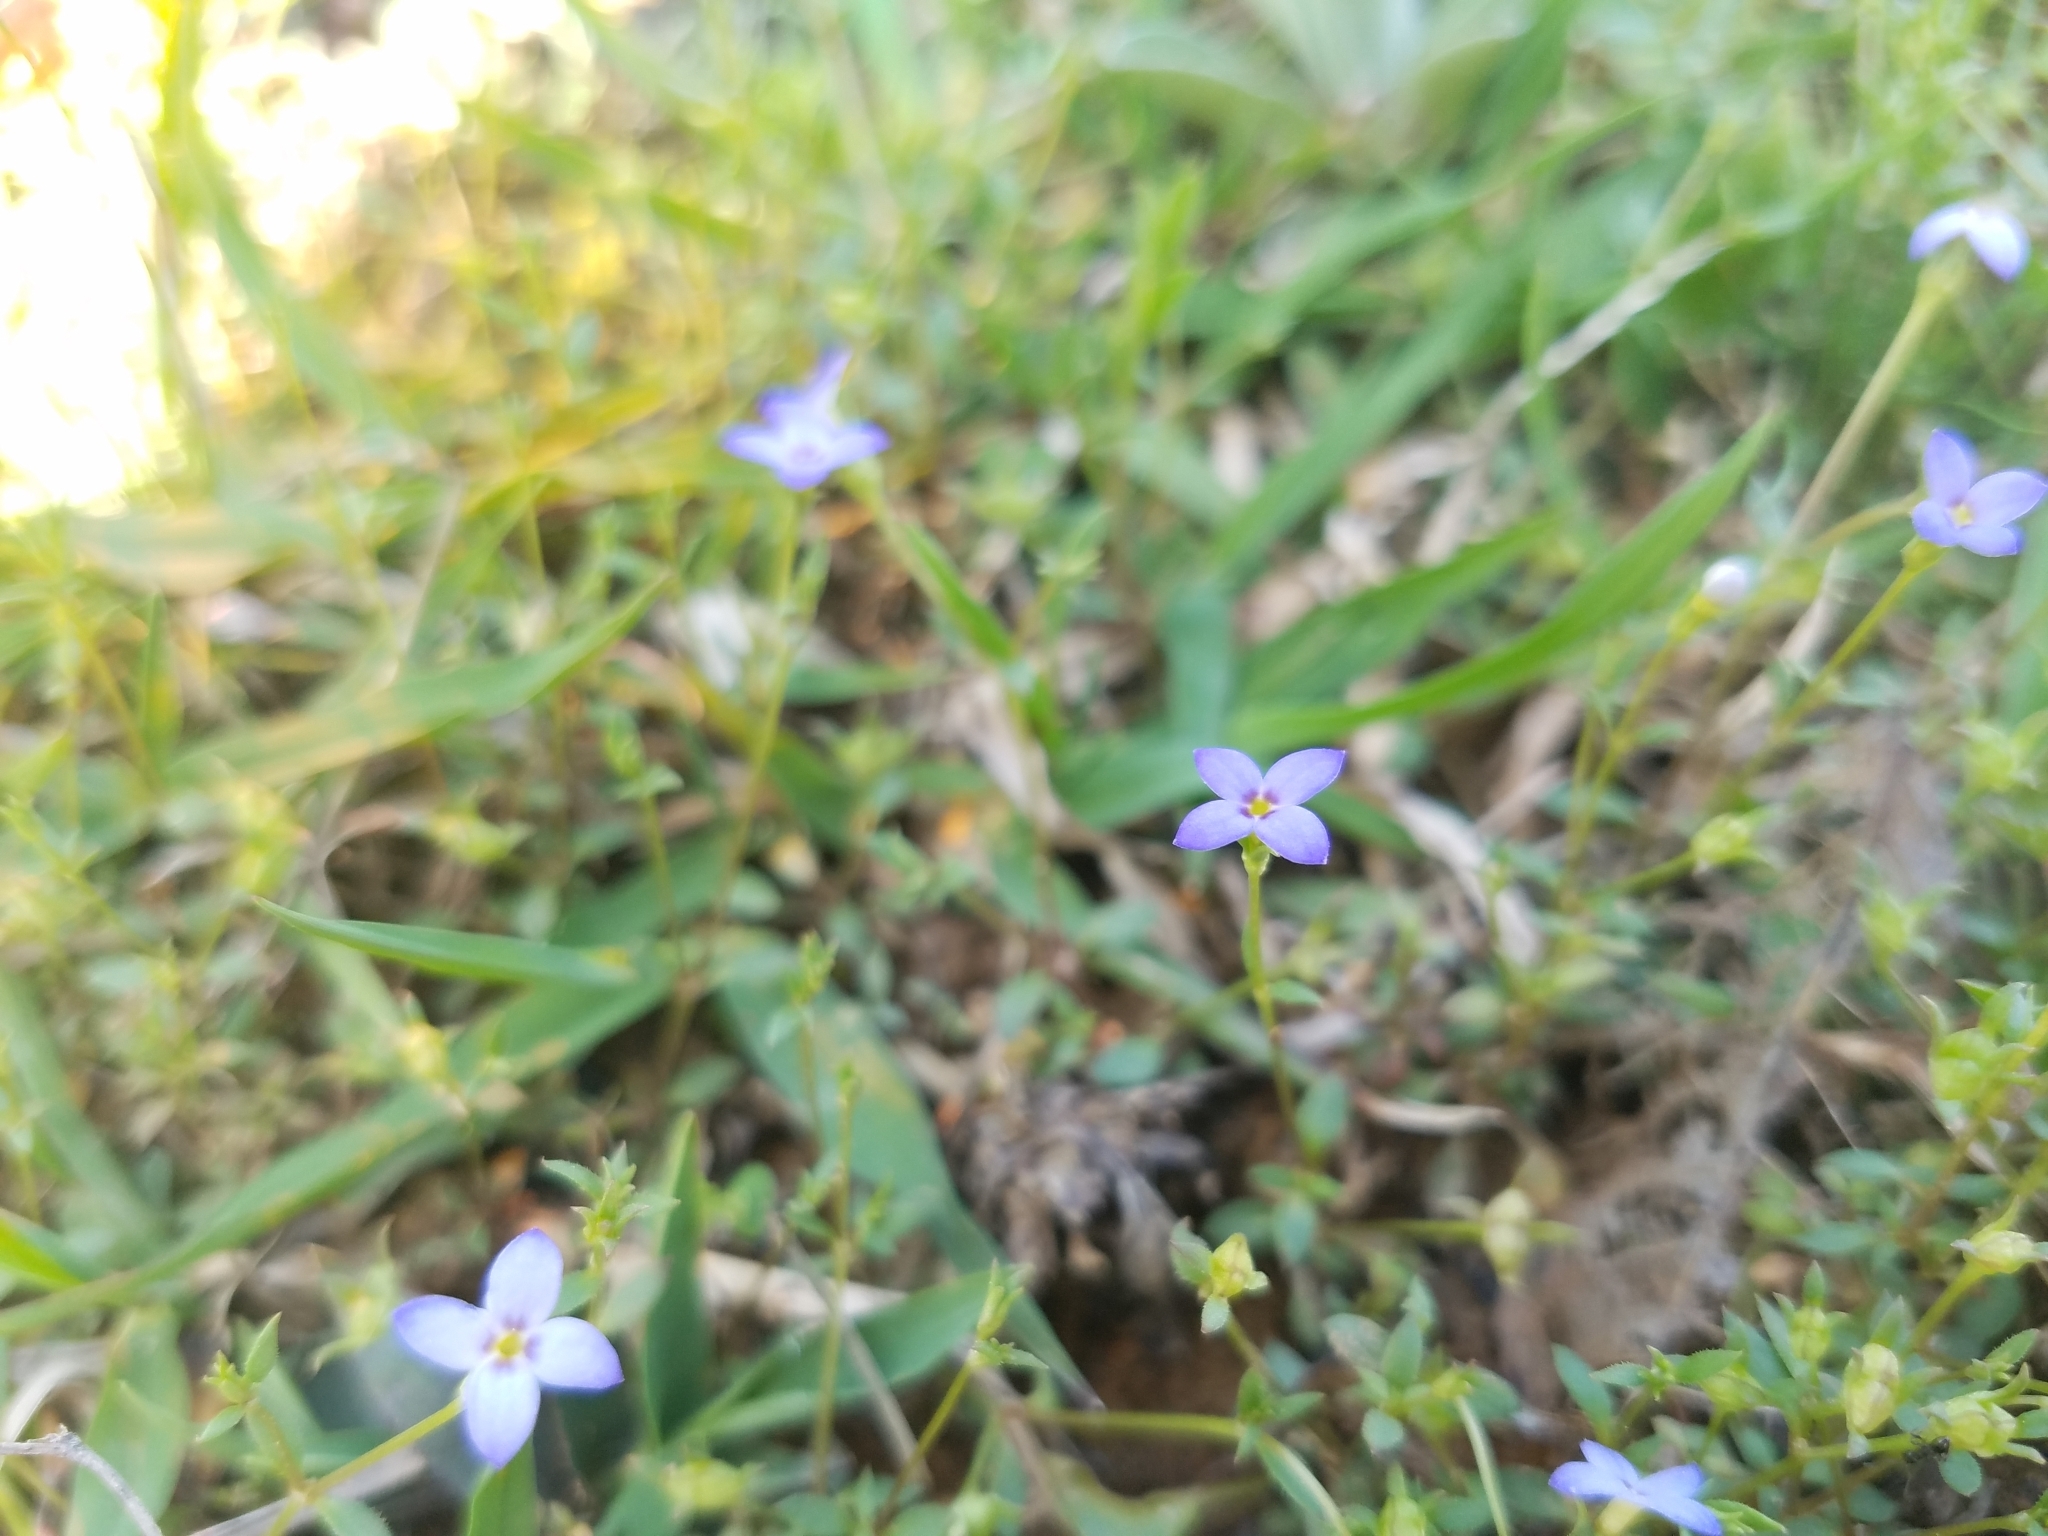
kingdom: Plantae
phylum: Tracheophyta
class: Magnoliopsida
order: Gentianales
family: Rubiaceae
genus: Houstonia
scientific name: Houstonia pusilla
